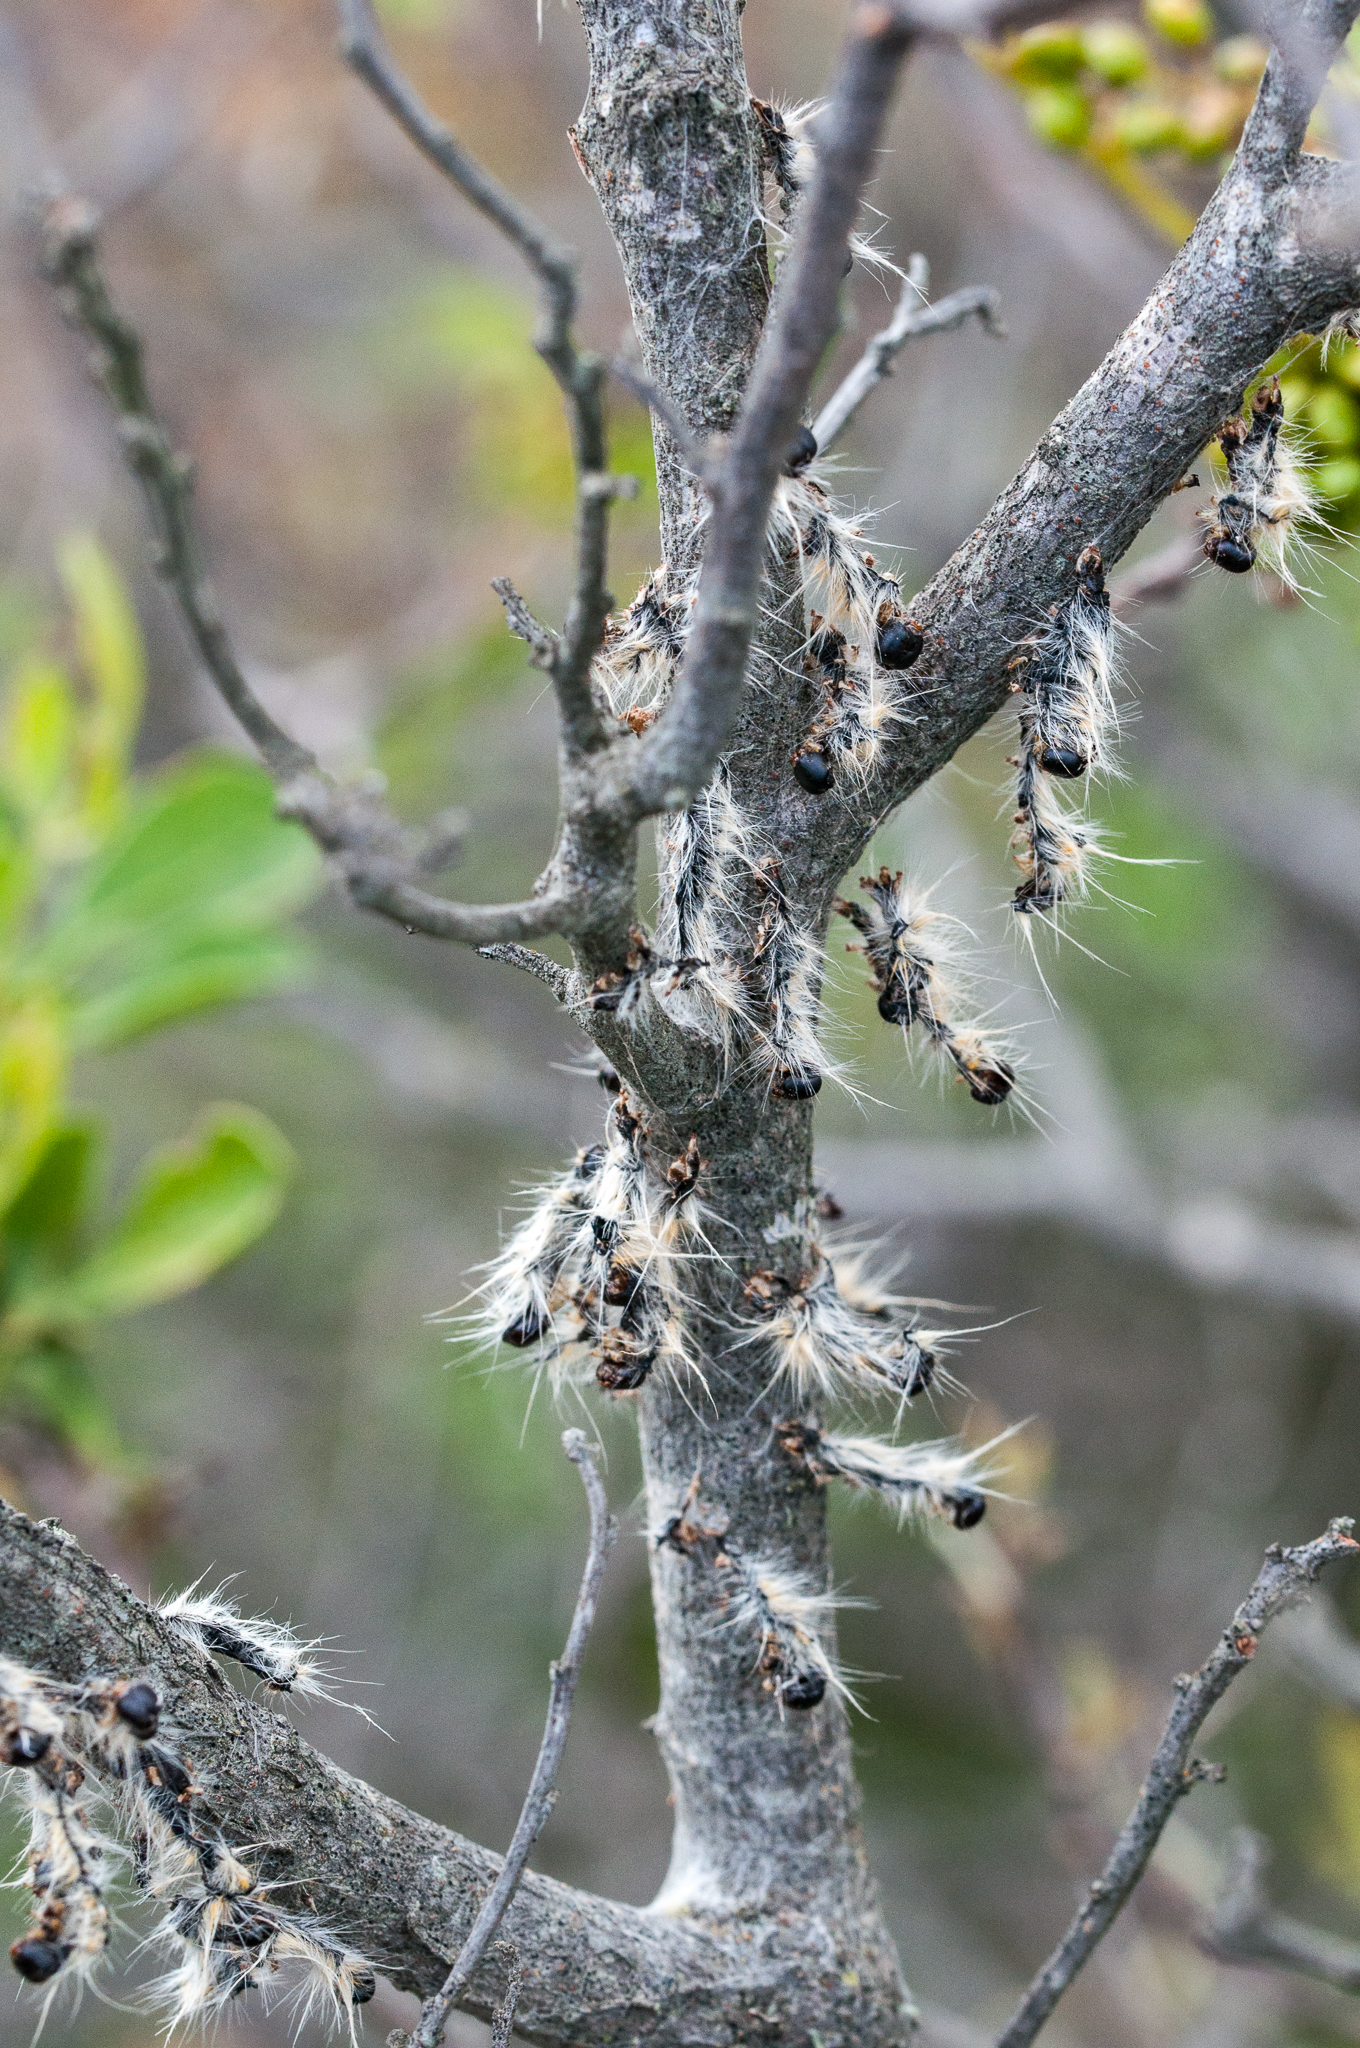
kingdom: Animalia
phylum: Arthropoda
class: Insecta
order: Lepidoptera
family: Lasiocampidae
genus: Bombycomorpha
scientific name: Bombycomorpha bifascia
